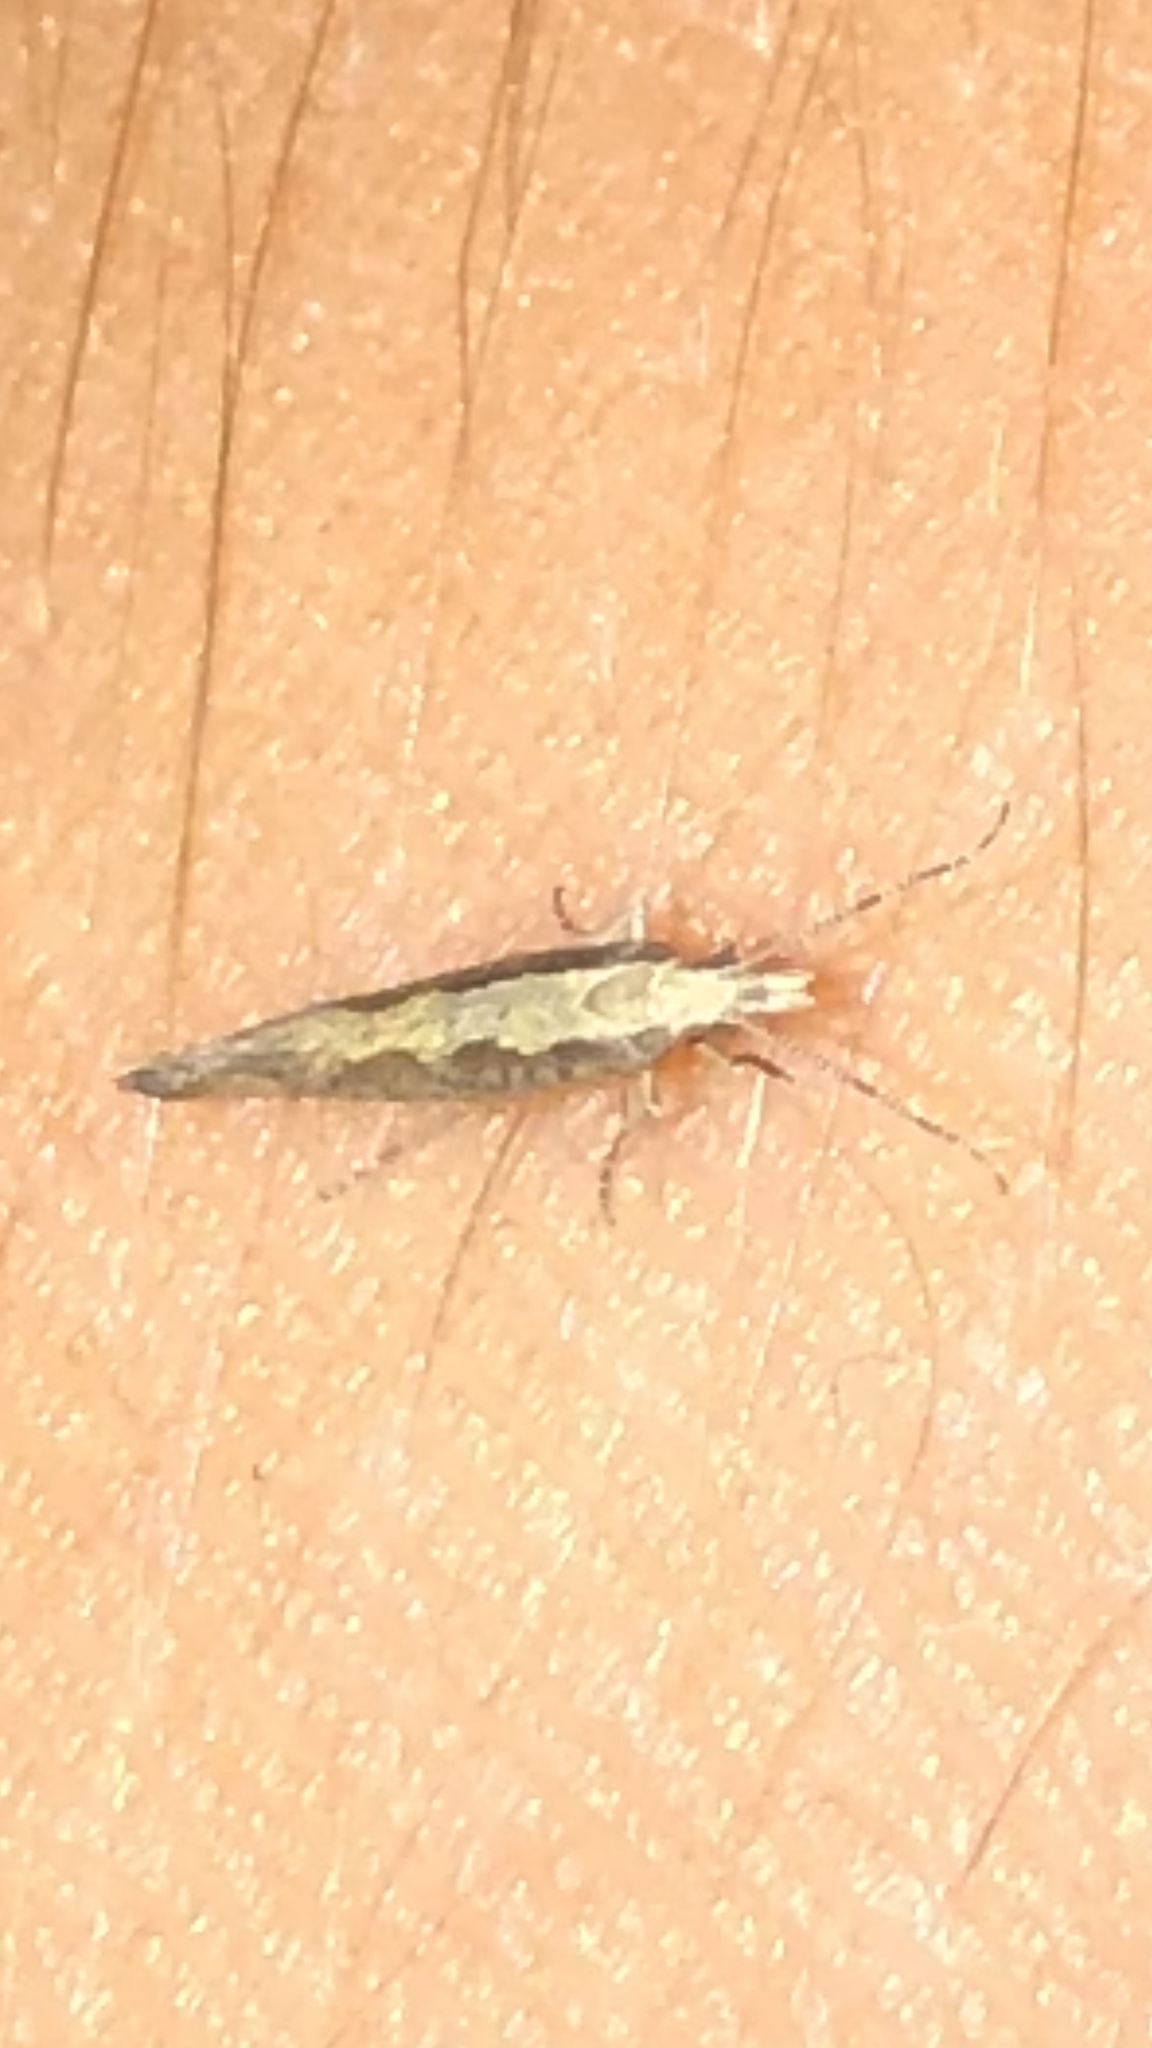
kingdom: Animalia
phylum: Arthropoda
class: Insecta
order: Lepidoptera
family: Plutellidae
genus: Plutella
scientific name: Plutella xylostella
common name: Diamond-back moth
